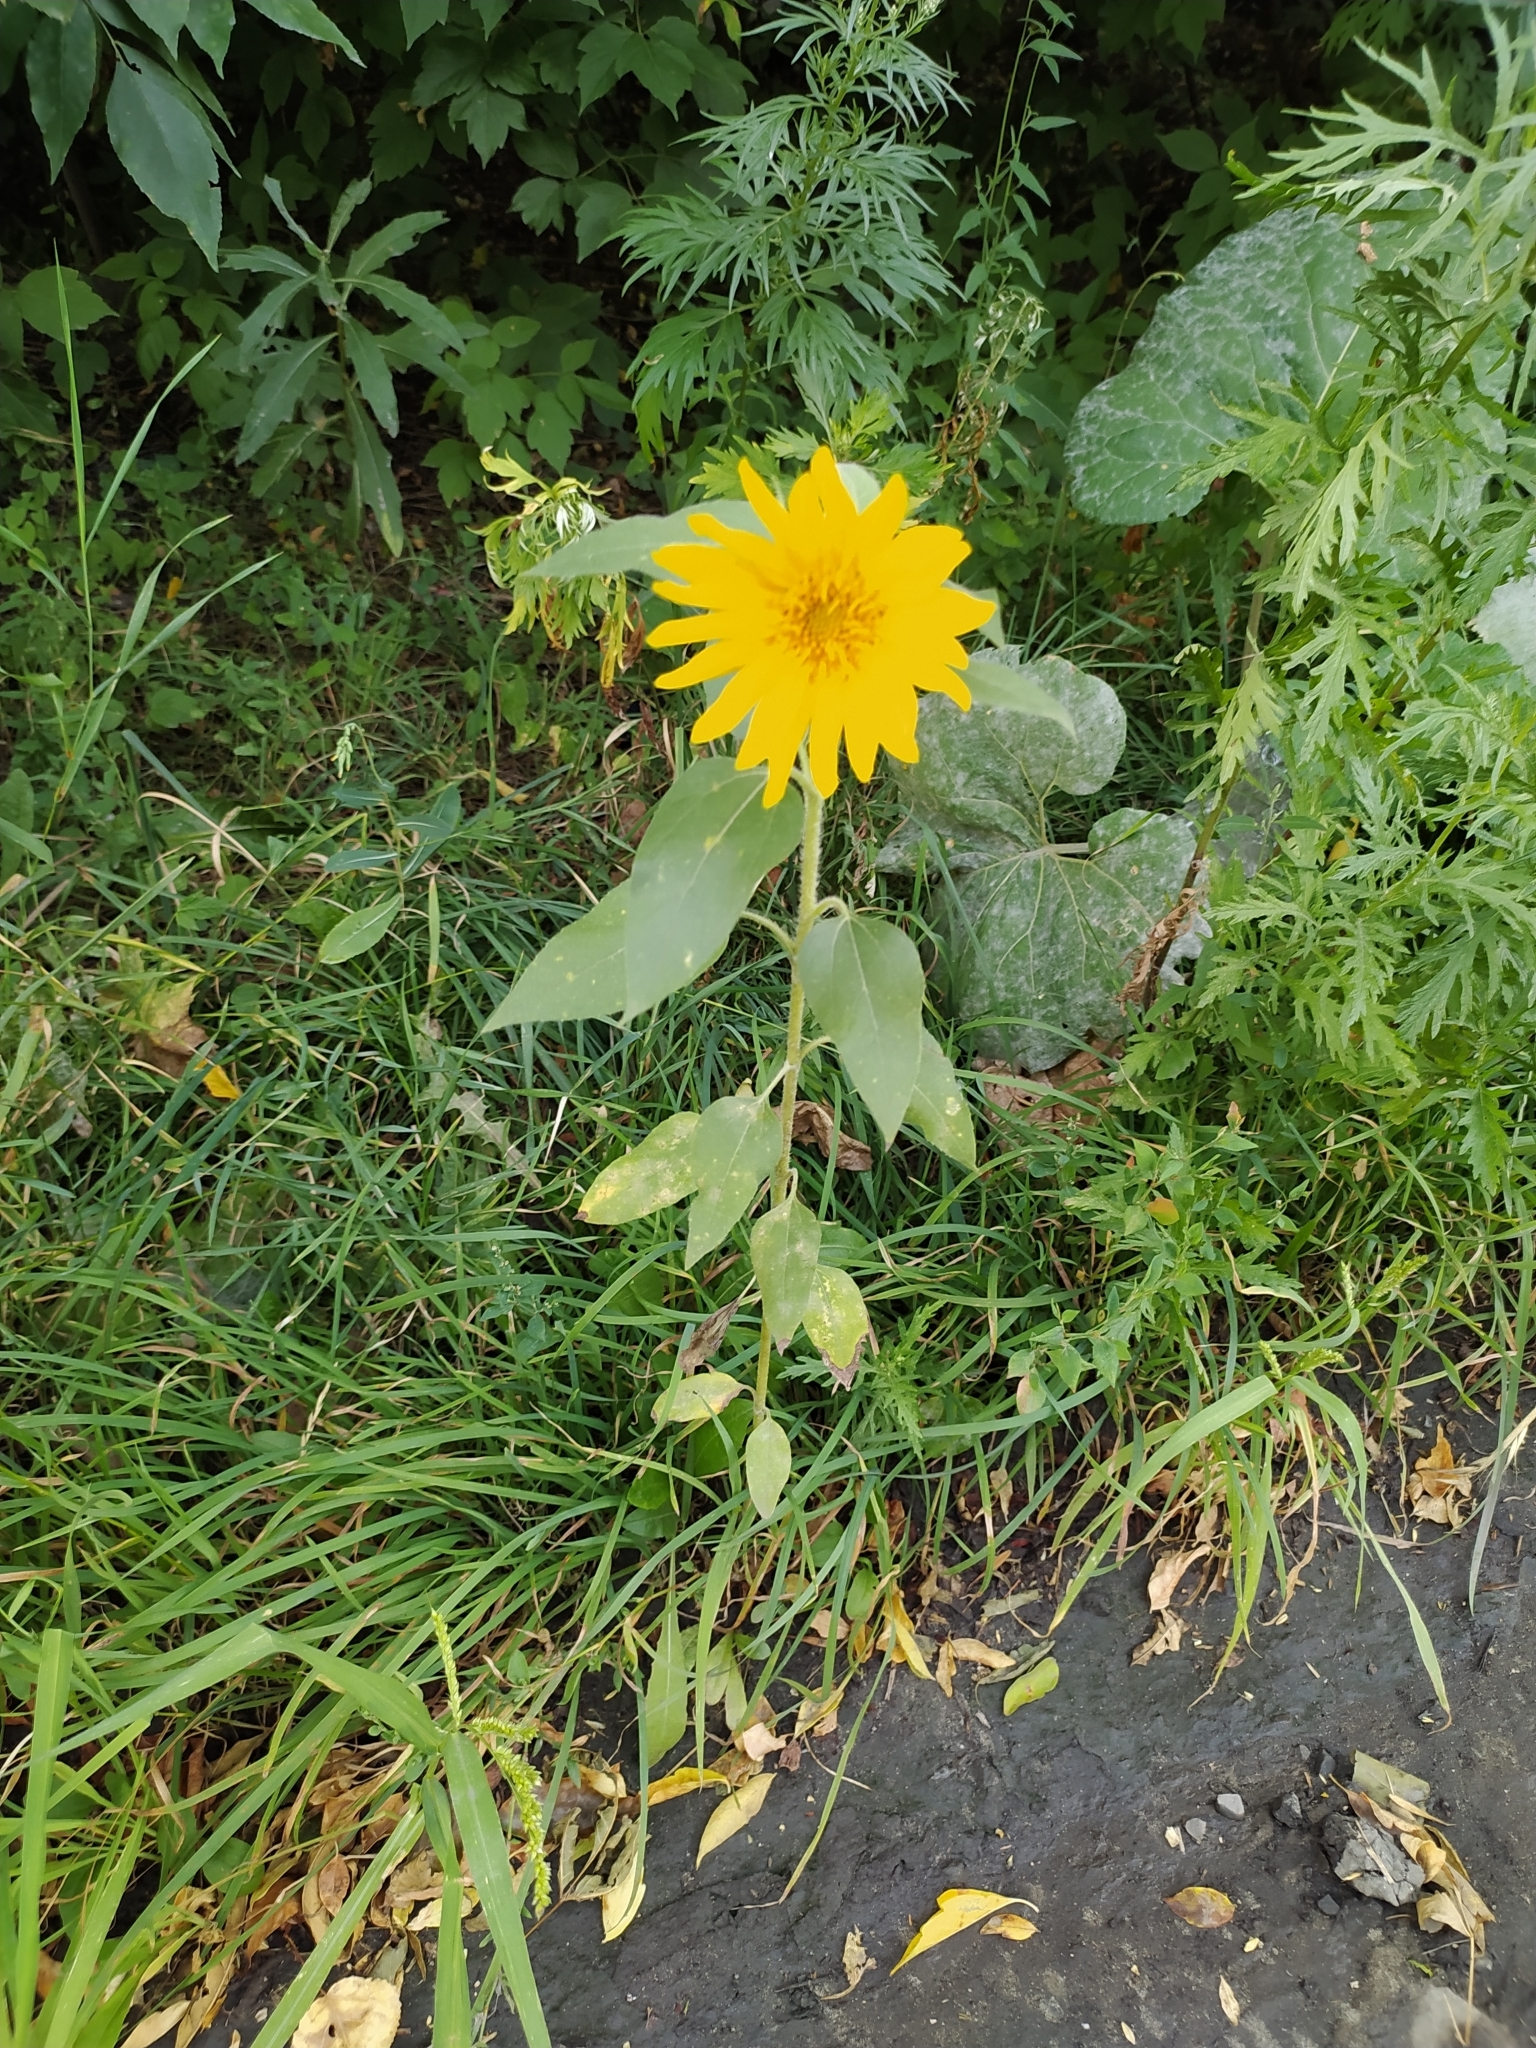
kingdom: Plantae
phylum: Tracheophyta
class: Magnoliopsida
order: Asterales
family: Asteraceae
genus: Helianthus
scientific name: Helianthus annuus
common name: Sunflower
